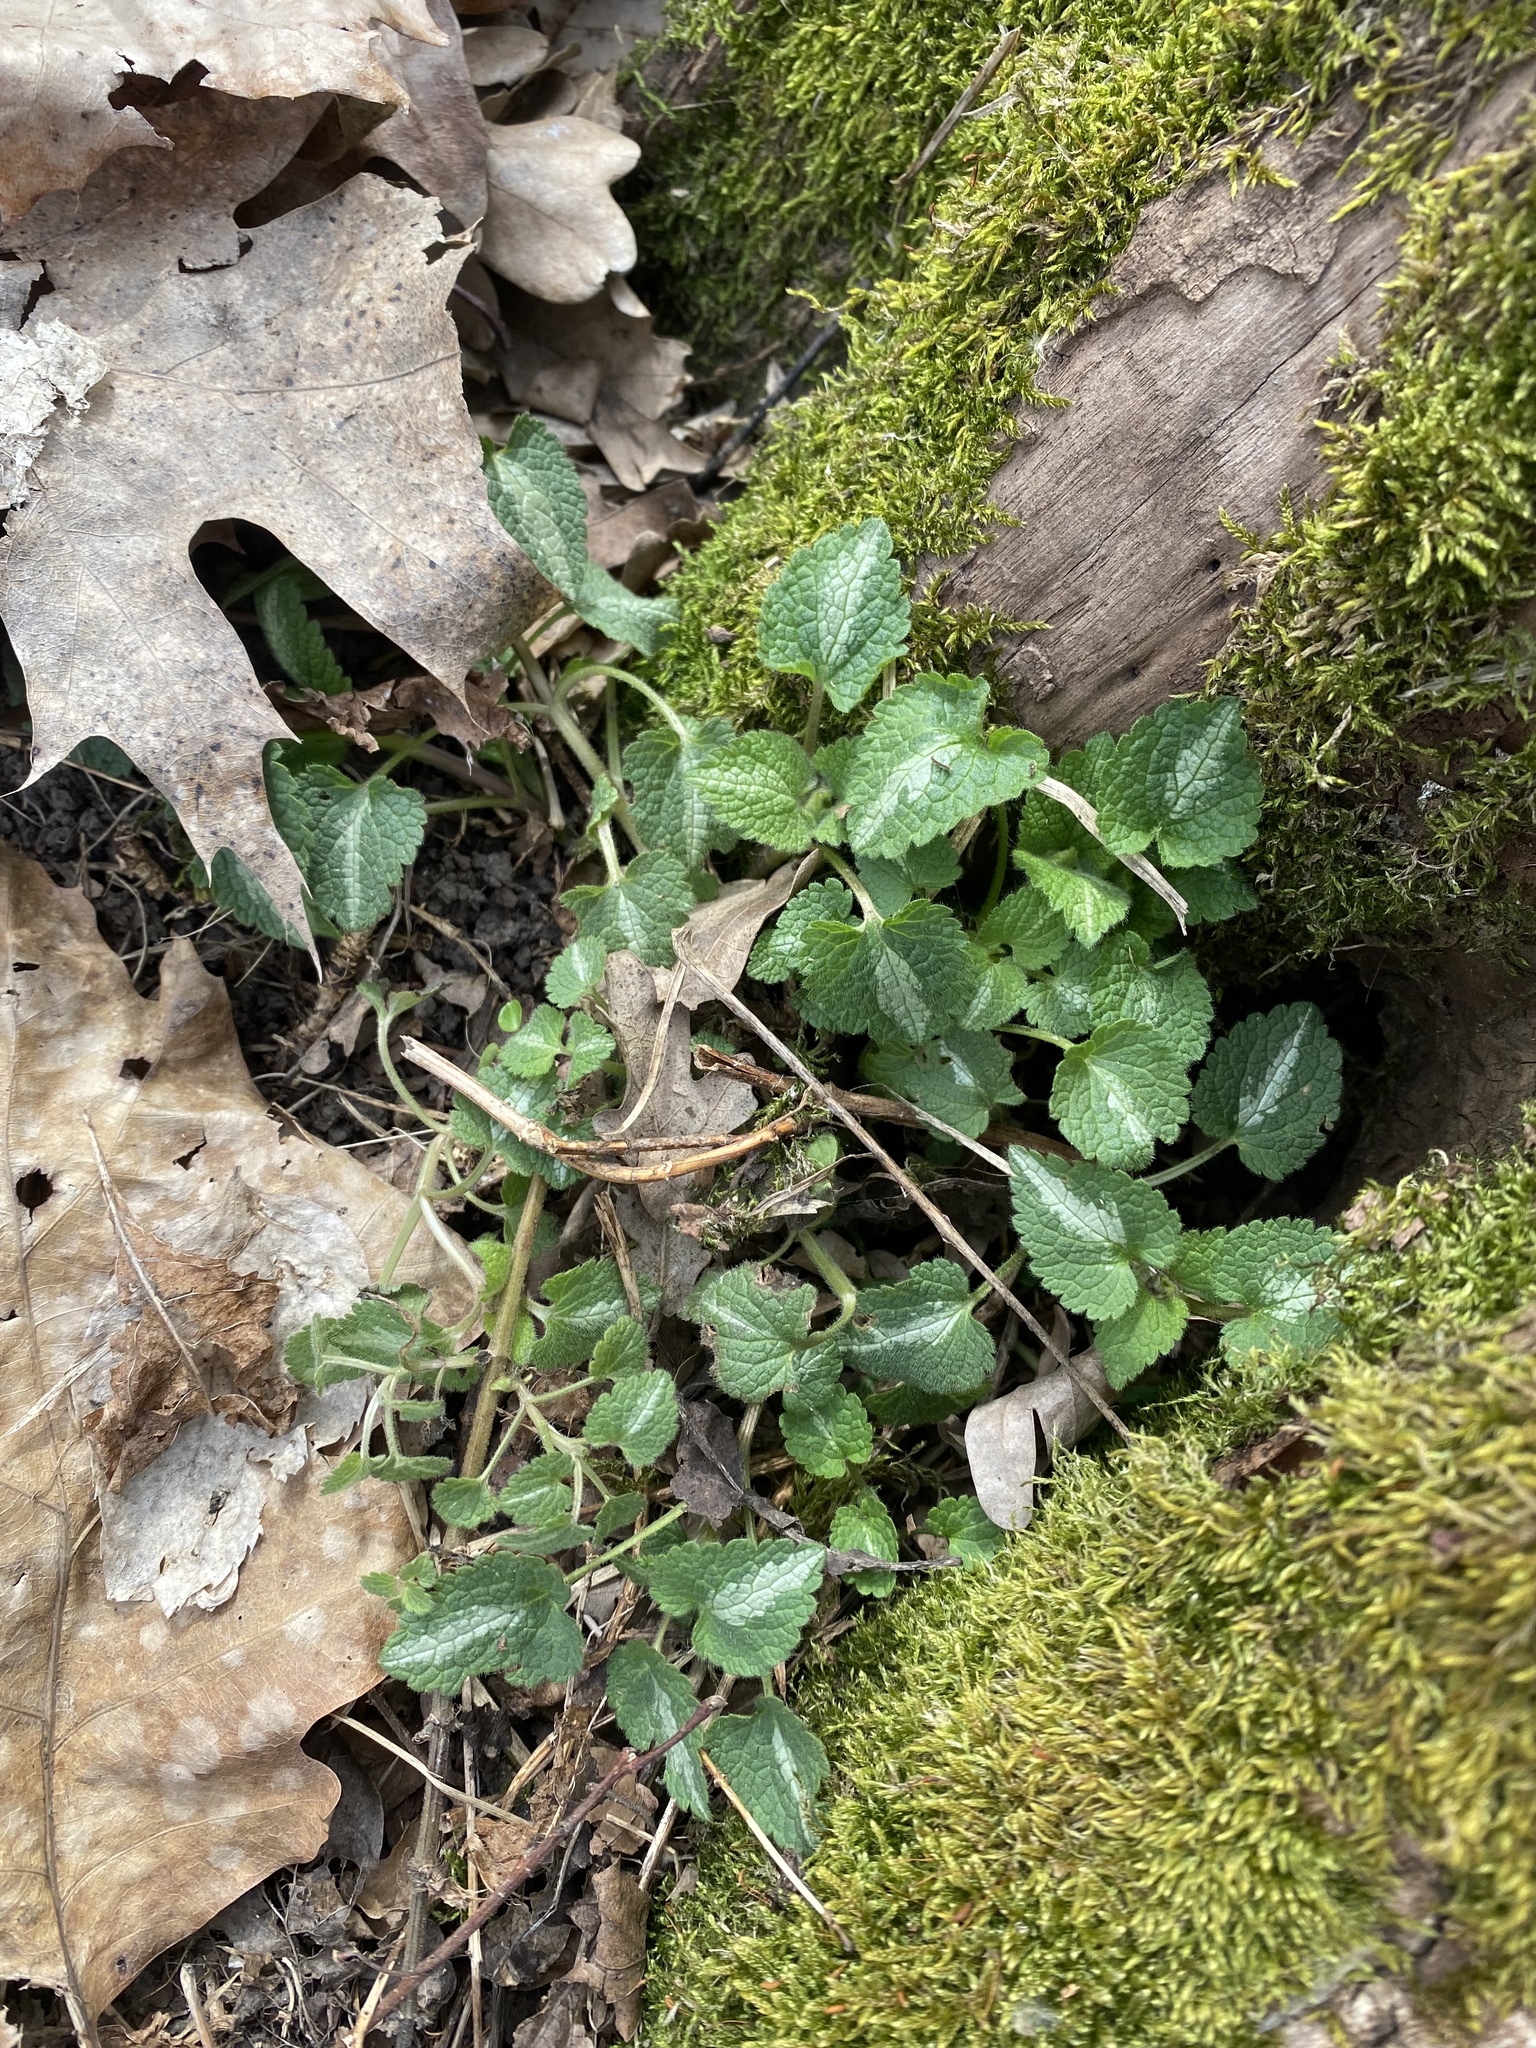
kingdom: Plantae
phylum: Tracheophyta
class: Magnoliopsida
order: Lamiales
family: Lamiaceae
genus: Lamium
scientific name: Lamium maculatum
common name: Spotted dead-nettle
